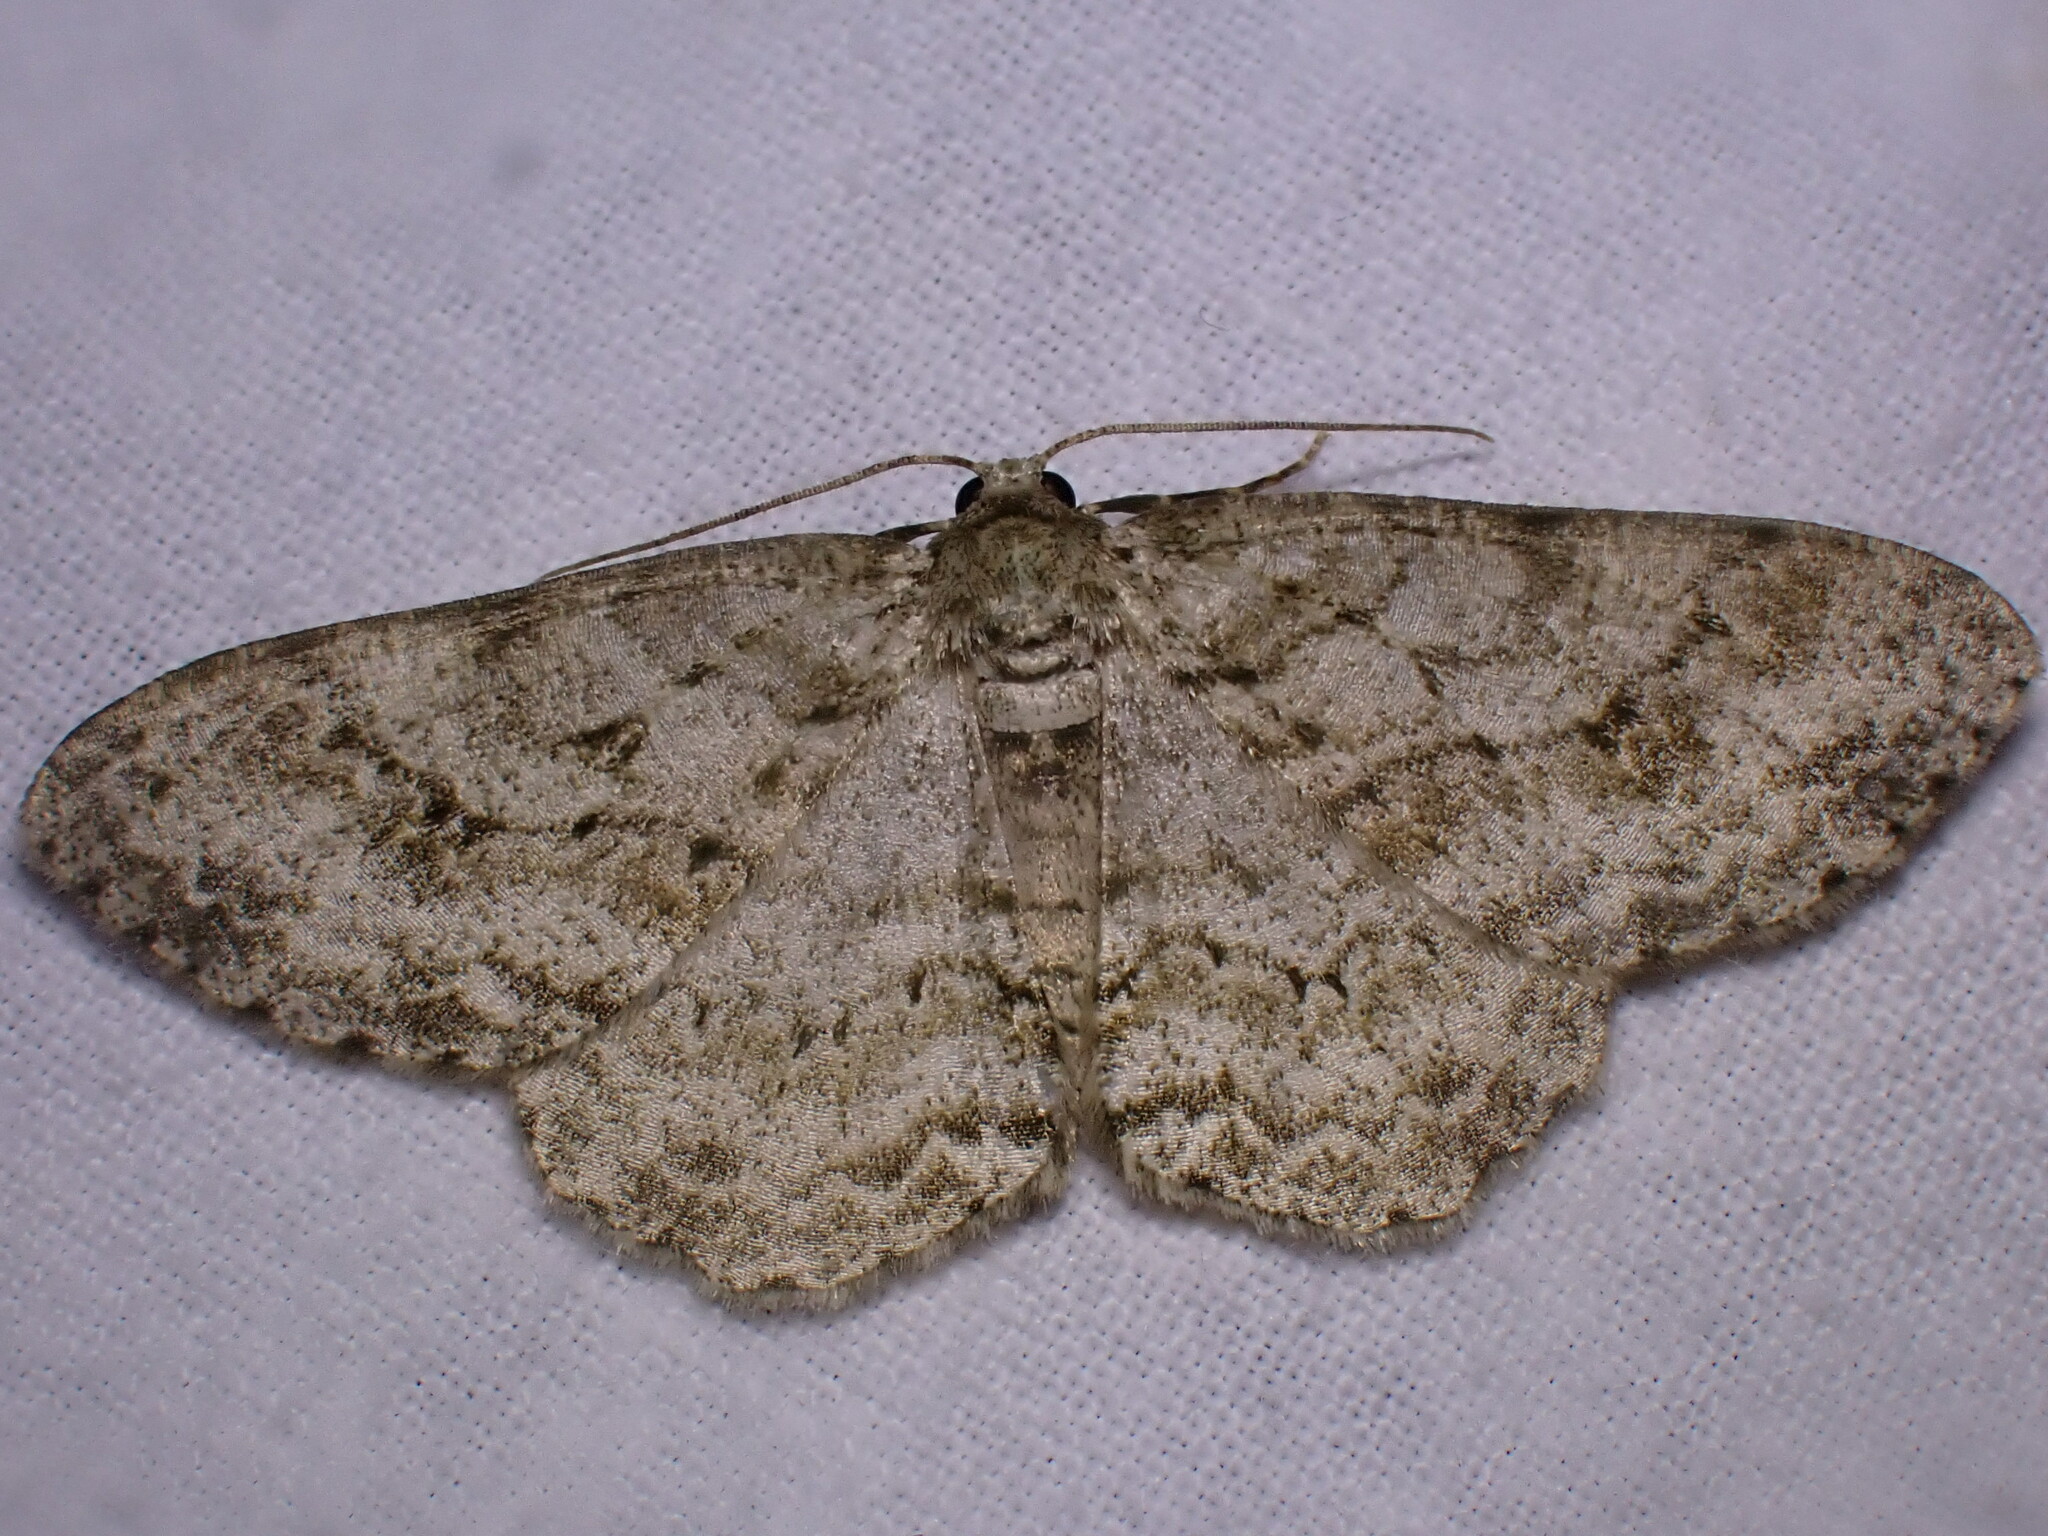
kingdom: Animalia
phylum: Arthropoda
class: Insecta
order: Lepidoptera
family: Geometridae
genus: Ectropis
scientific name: Ectropis crepuscularia
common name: Engrailed
